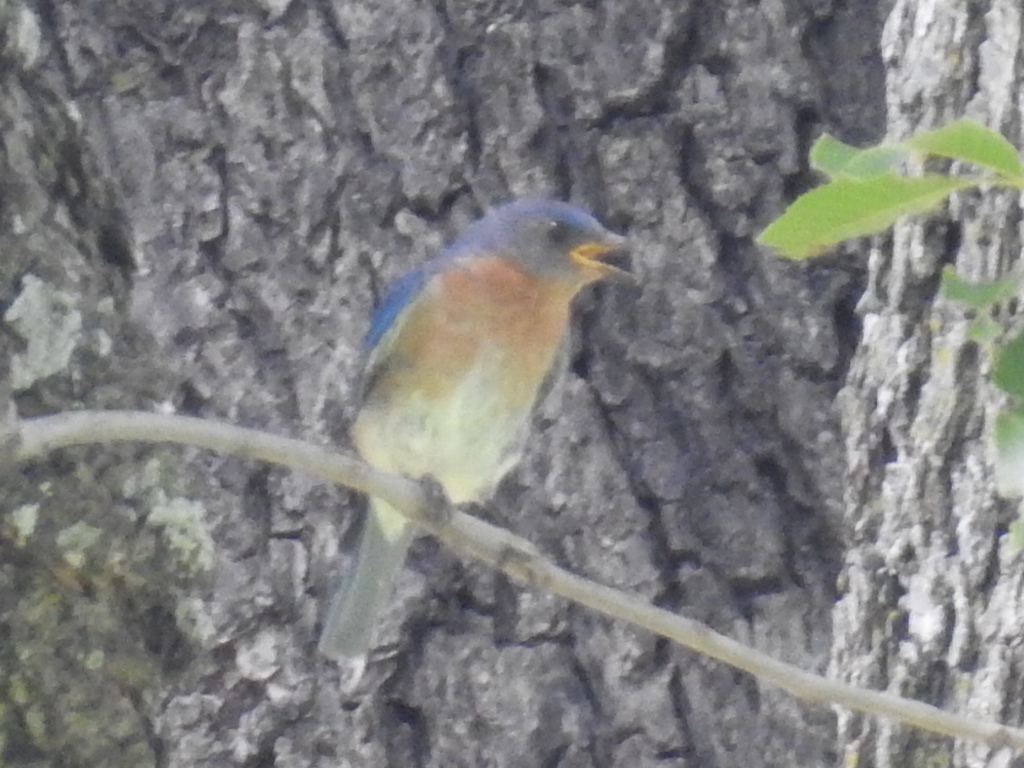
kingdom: Animalia
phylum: Chordata
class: Aves
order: Passeriformes
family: Turdidae
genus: Sialia
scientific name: Sialia sialis
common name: Eastern bluebird
